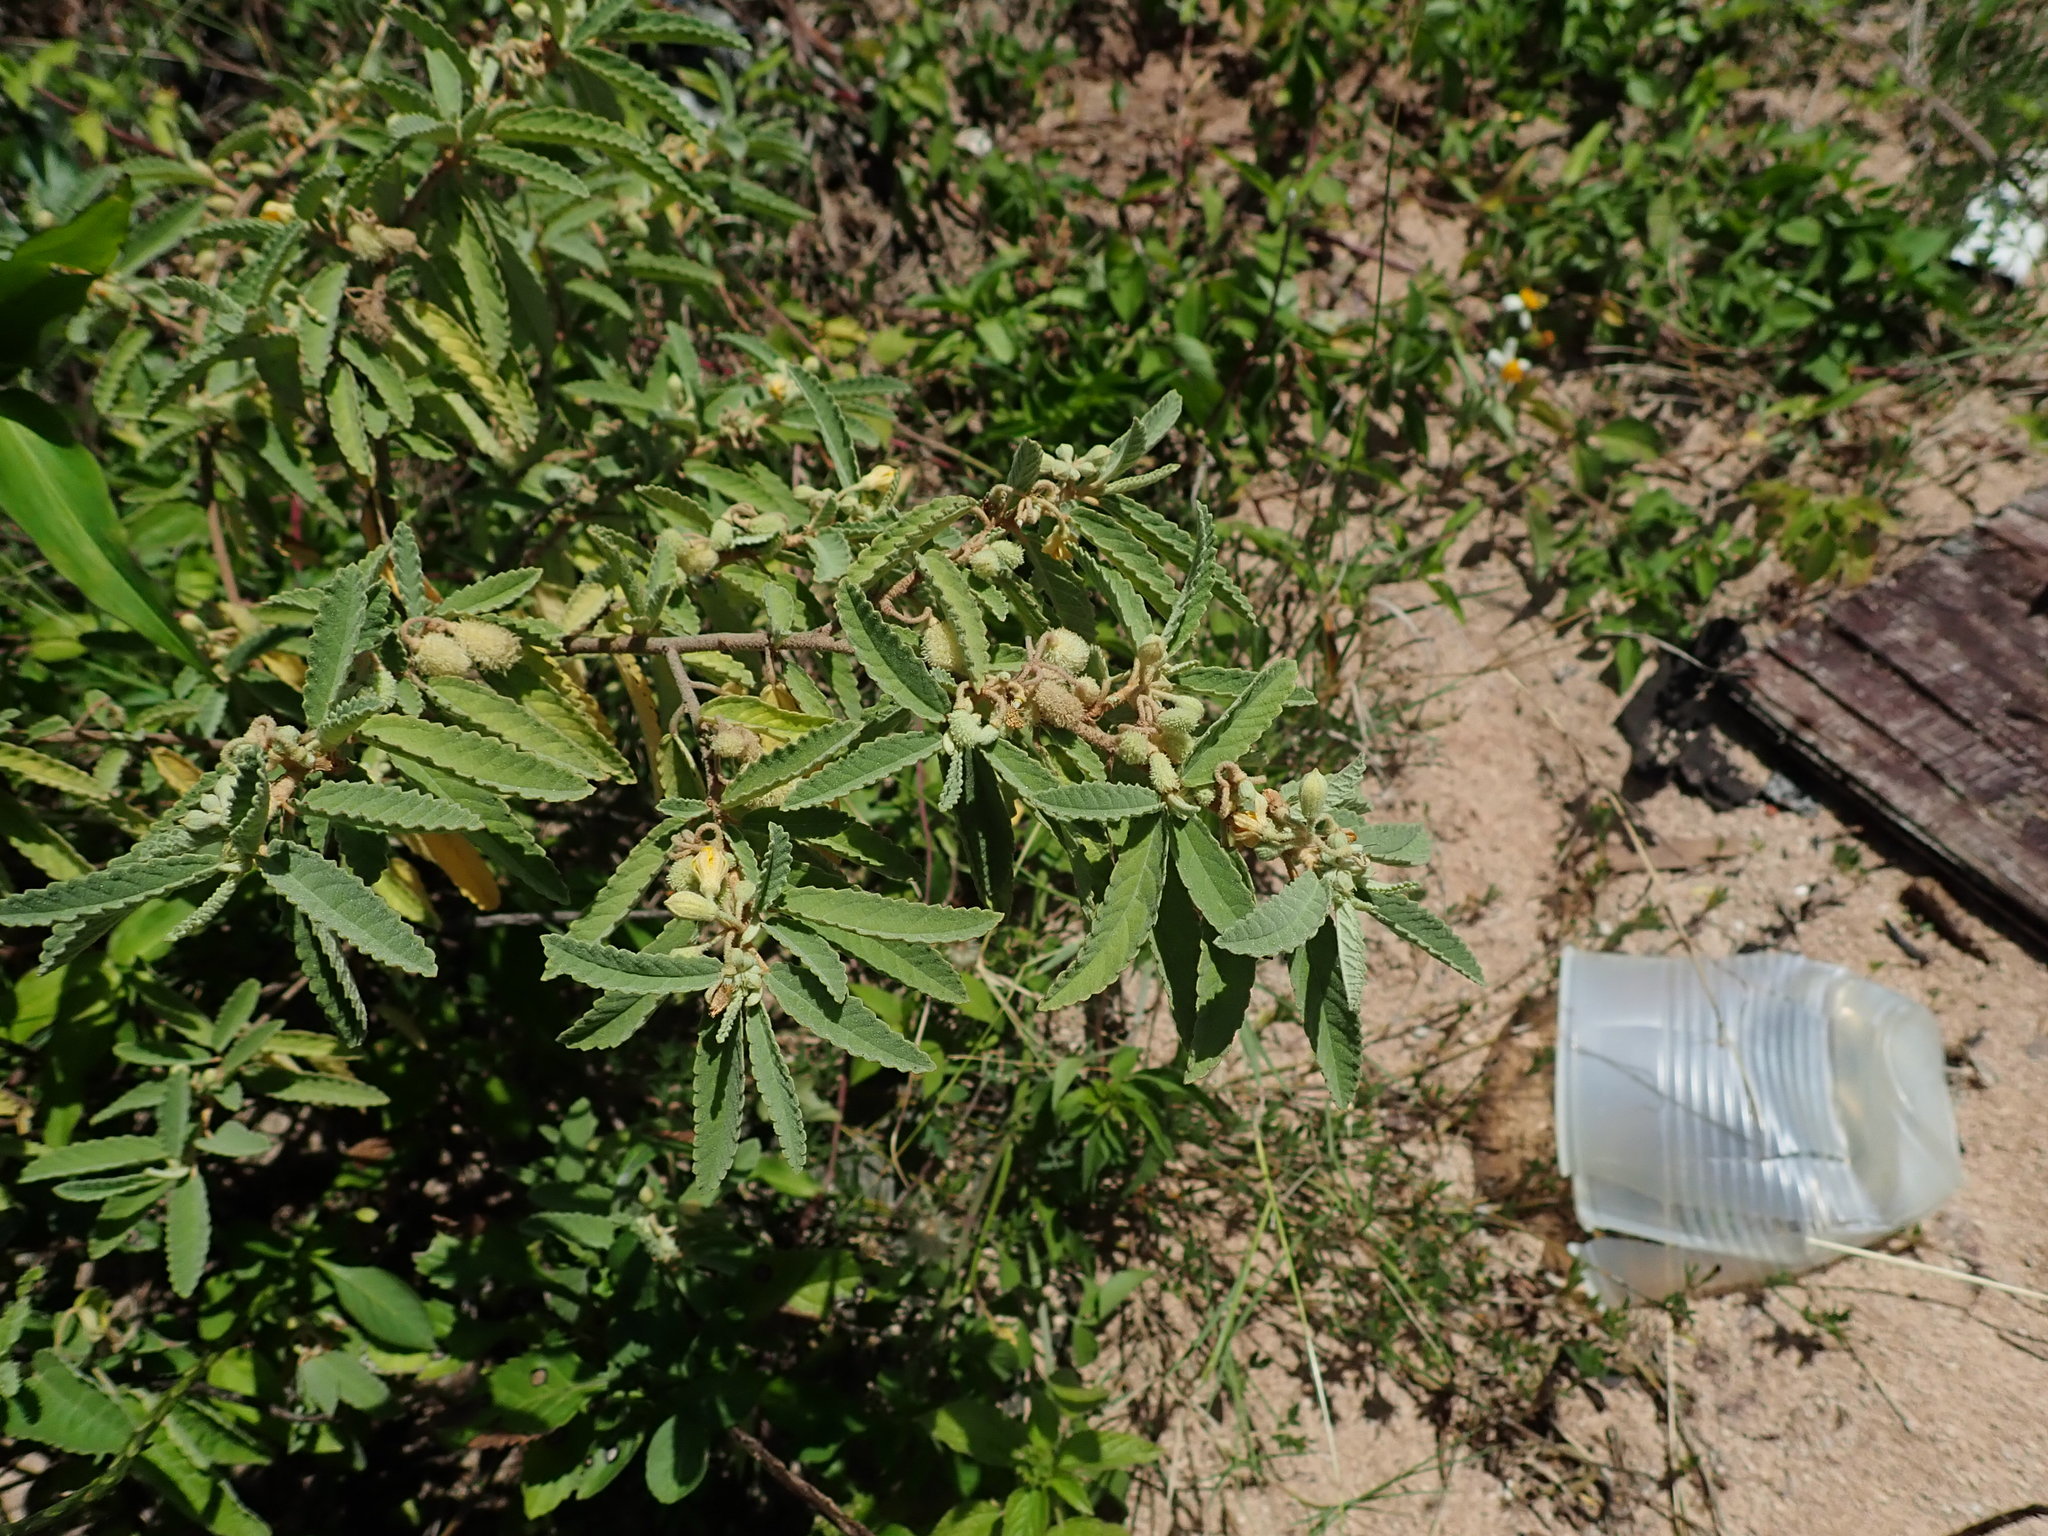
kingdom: Plantae
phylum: Tracheophyta
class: Magnoliopsida
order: Malvales
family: Malvaceae
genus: Corchorus
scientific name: Corchorus hirsutus
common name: Jackswitch
